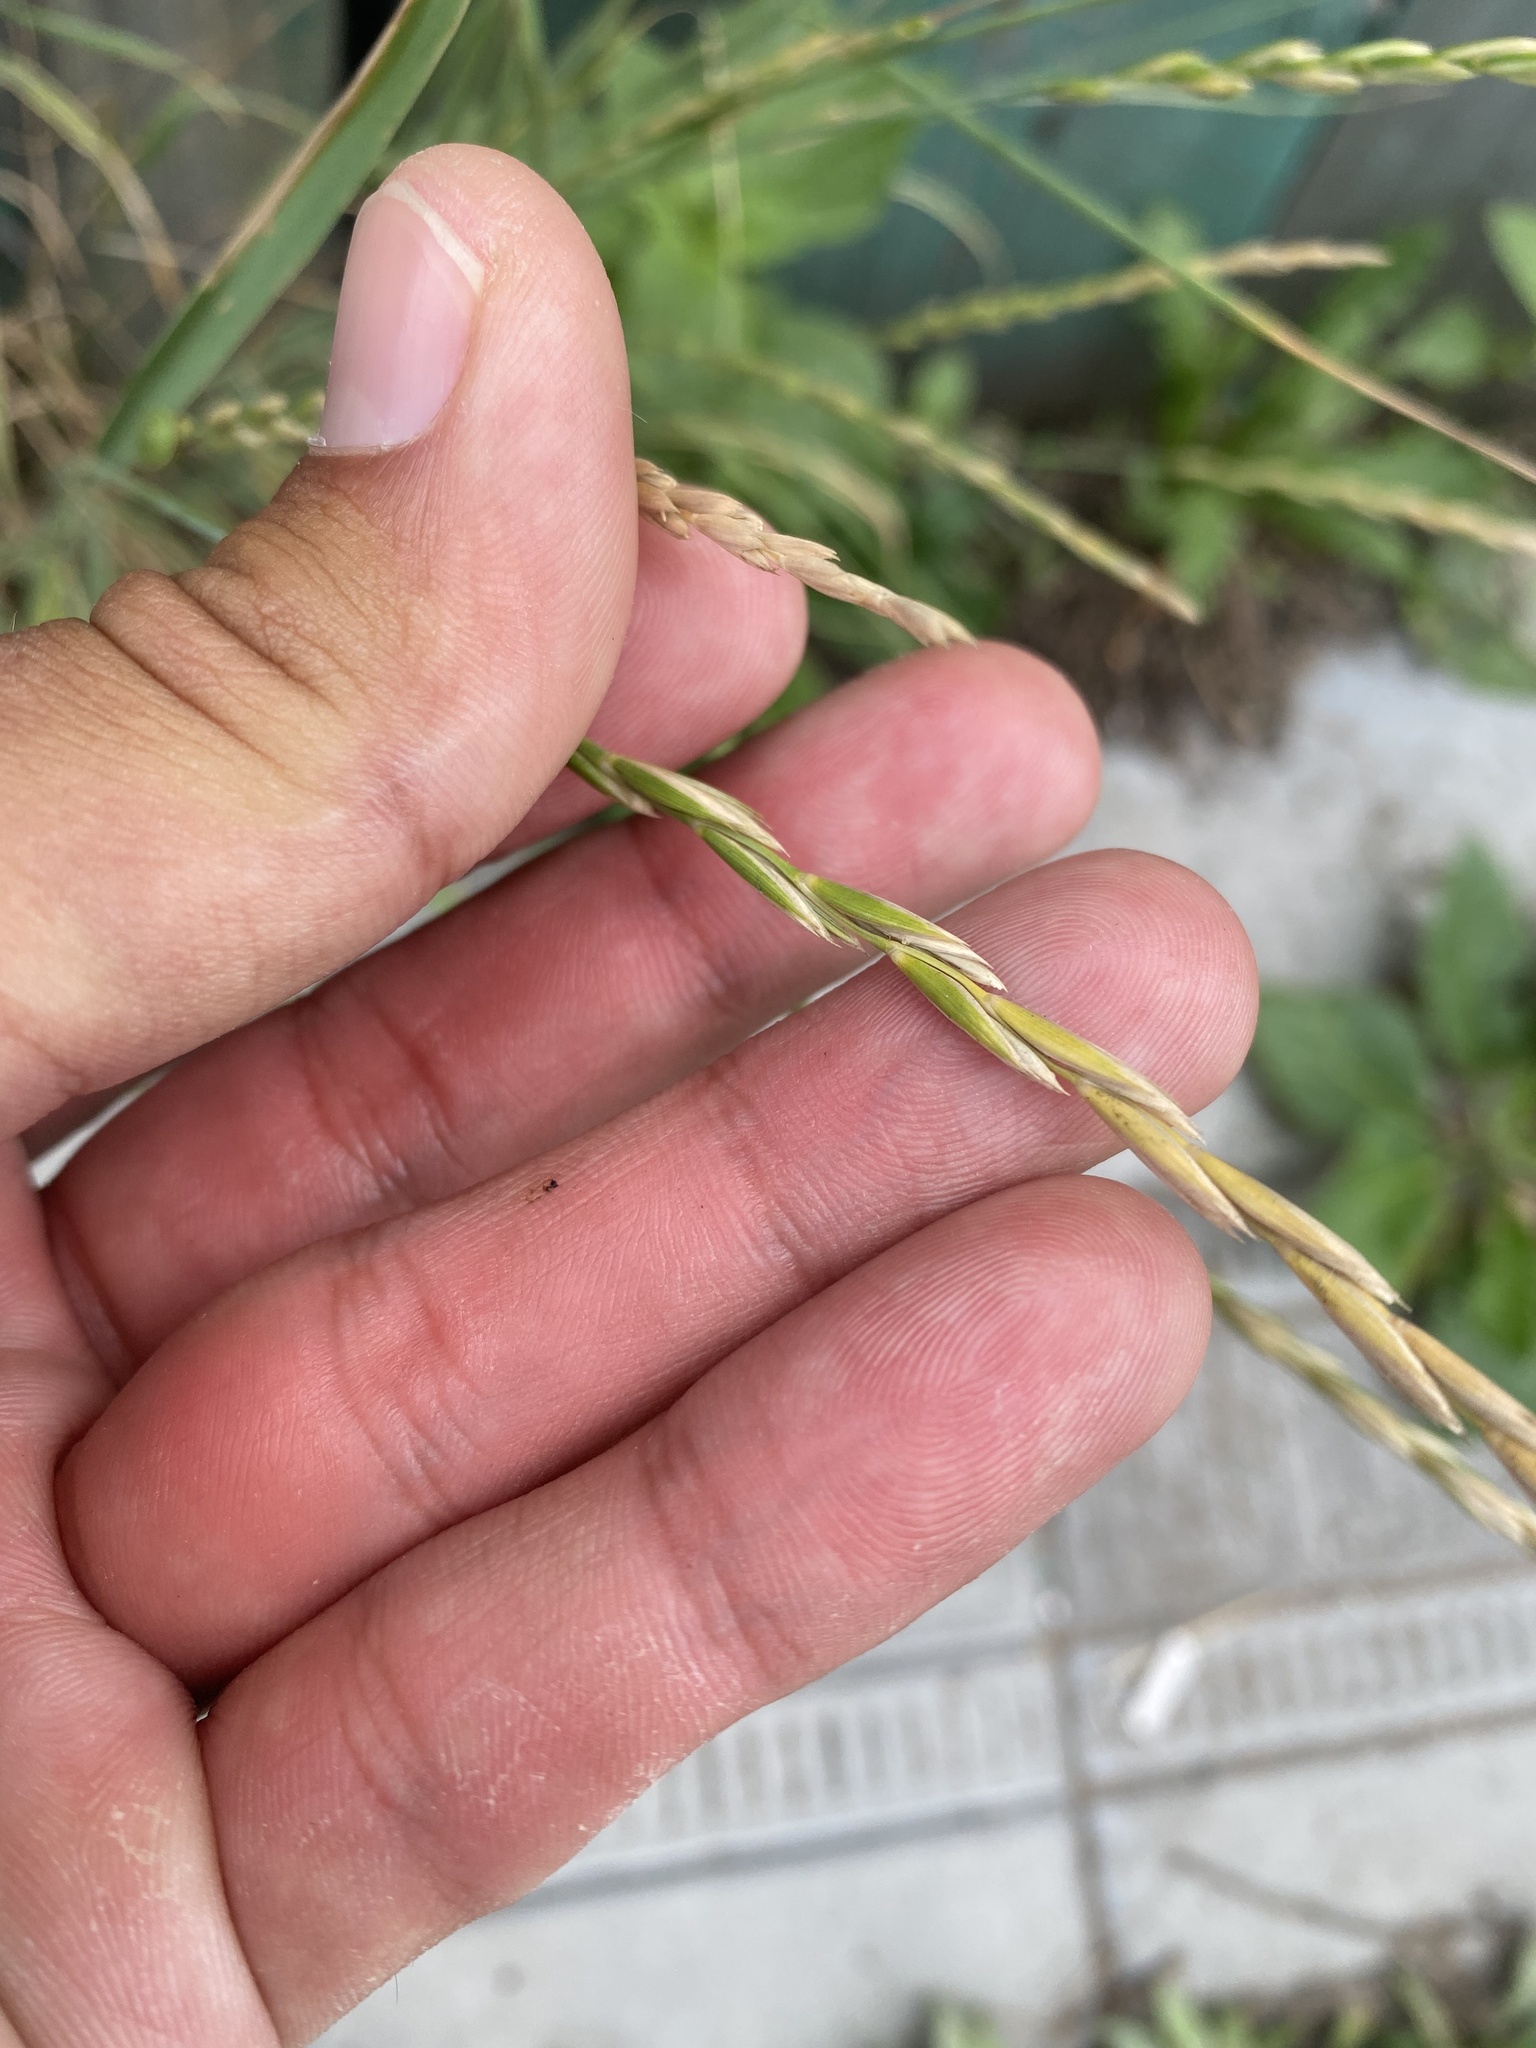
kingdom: Plantae
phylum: Tracheophyta
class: Liliopsida
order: Poales
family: Poaceae
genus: Elymus
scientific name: Elymus repens
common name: Quackgrass
